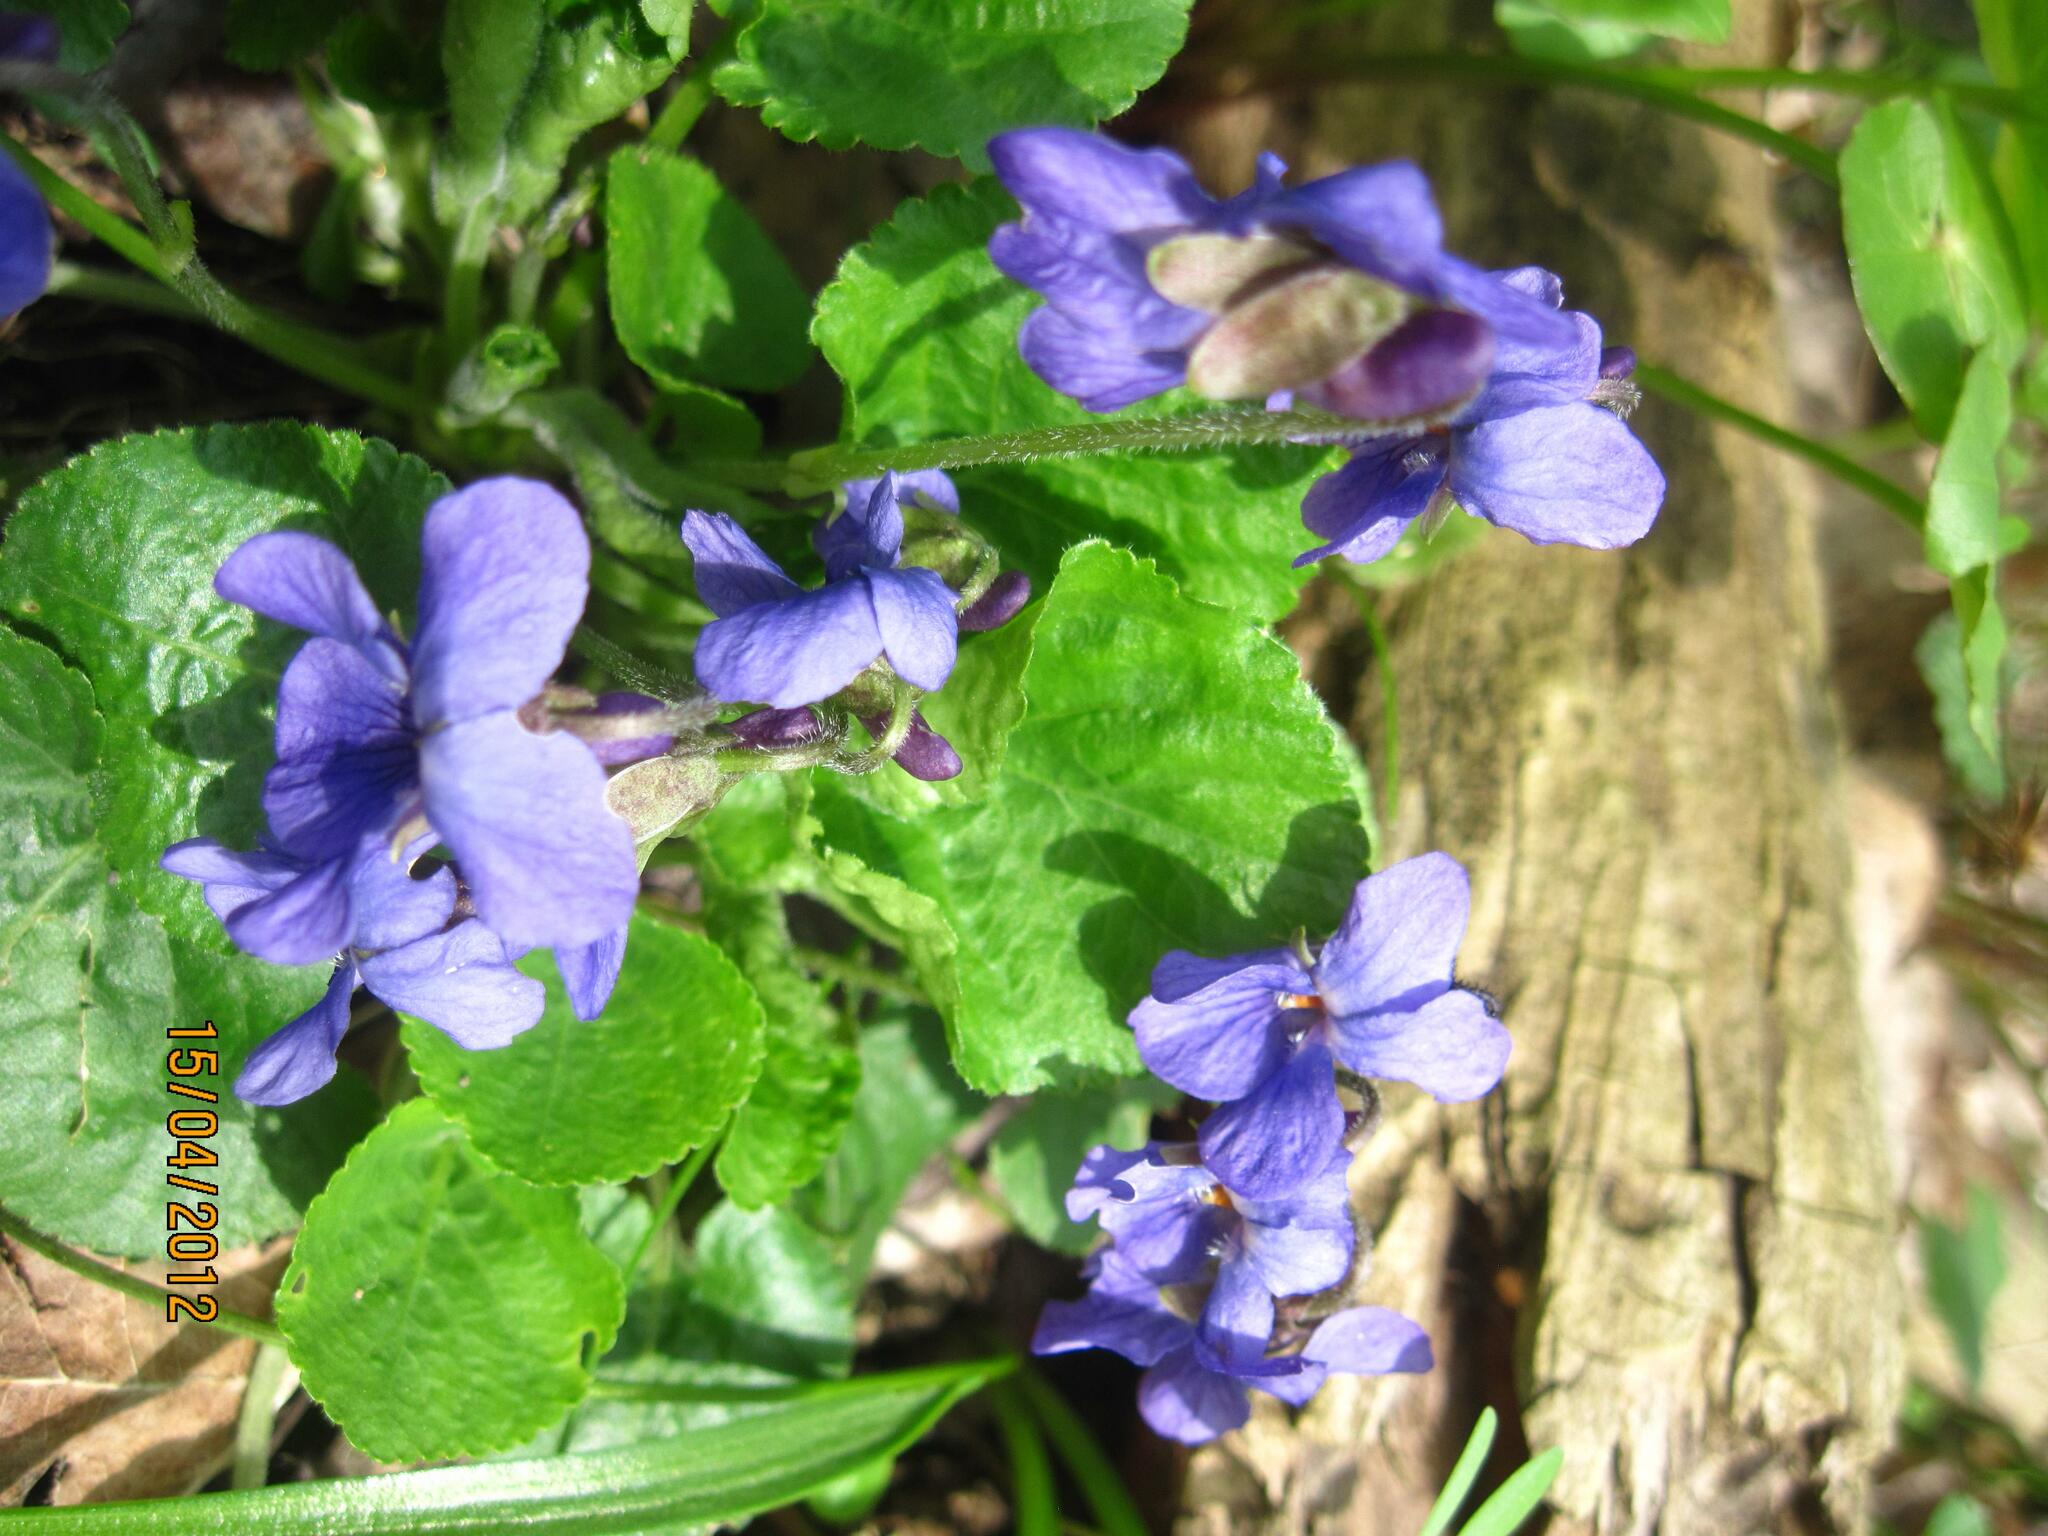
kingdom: Plantae
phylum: Tracheophyta
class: Magnoliopsida
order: Malpighiales
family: Violaceae
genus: Viola
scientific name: Viola odorata
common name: Sweet violet
